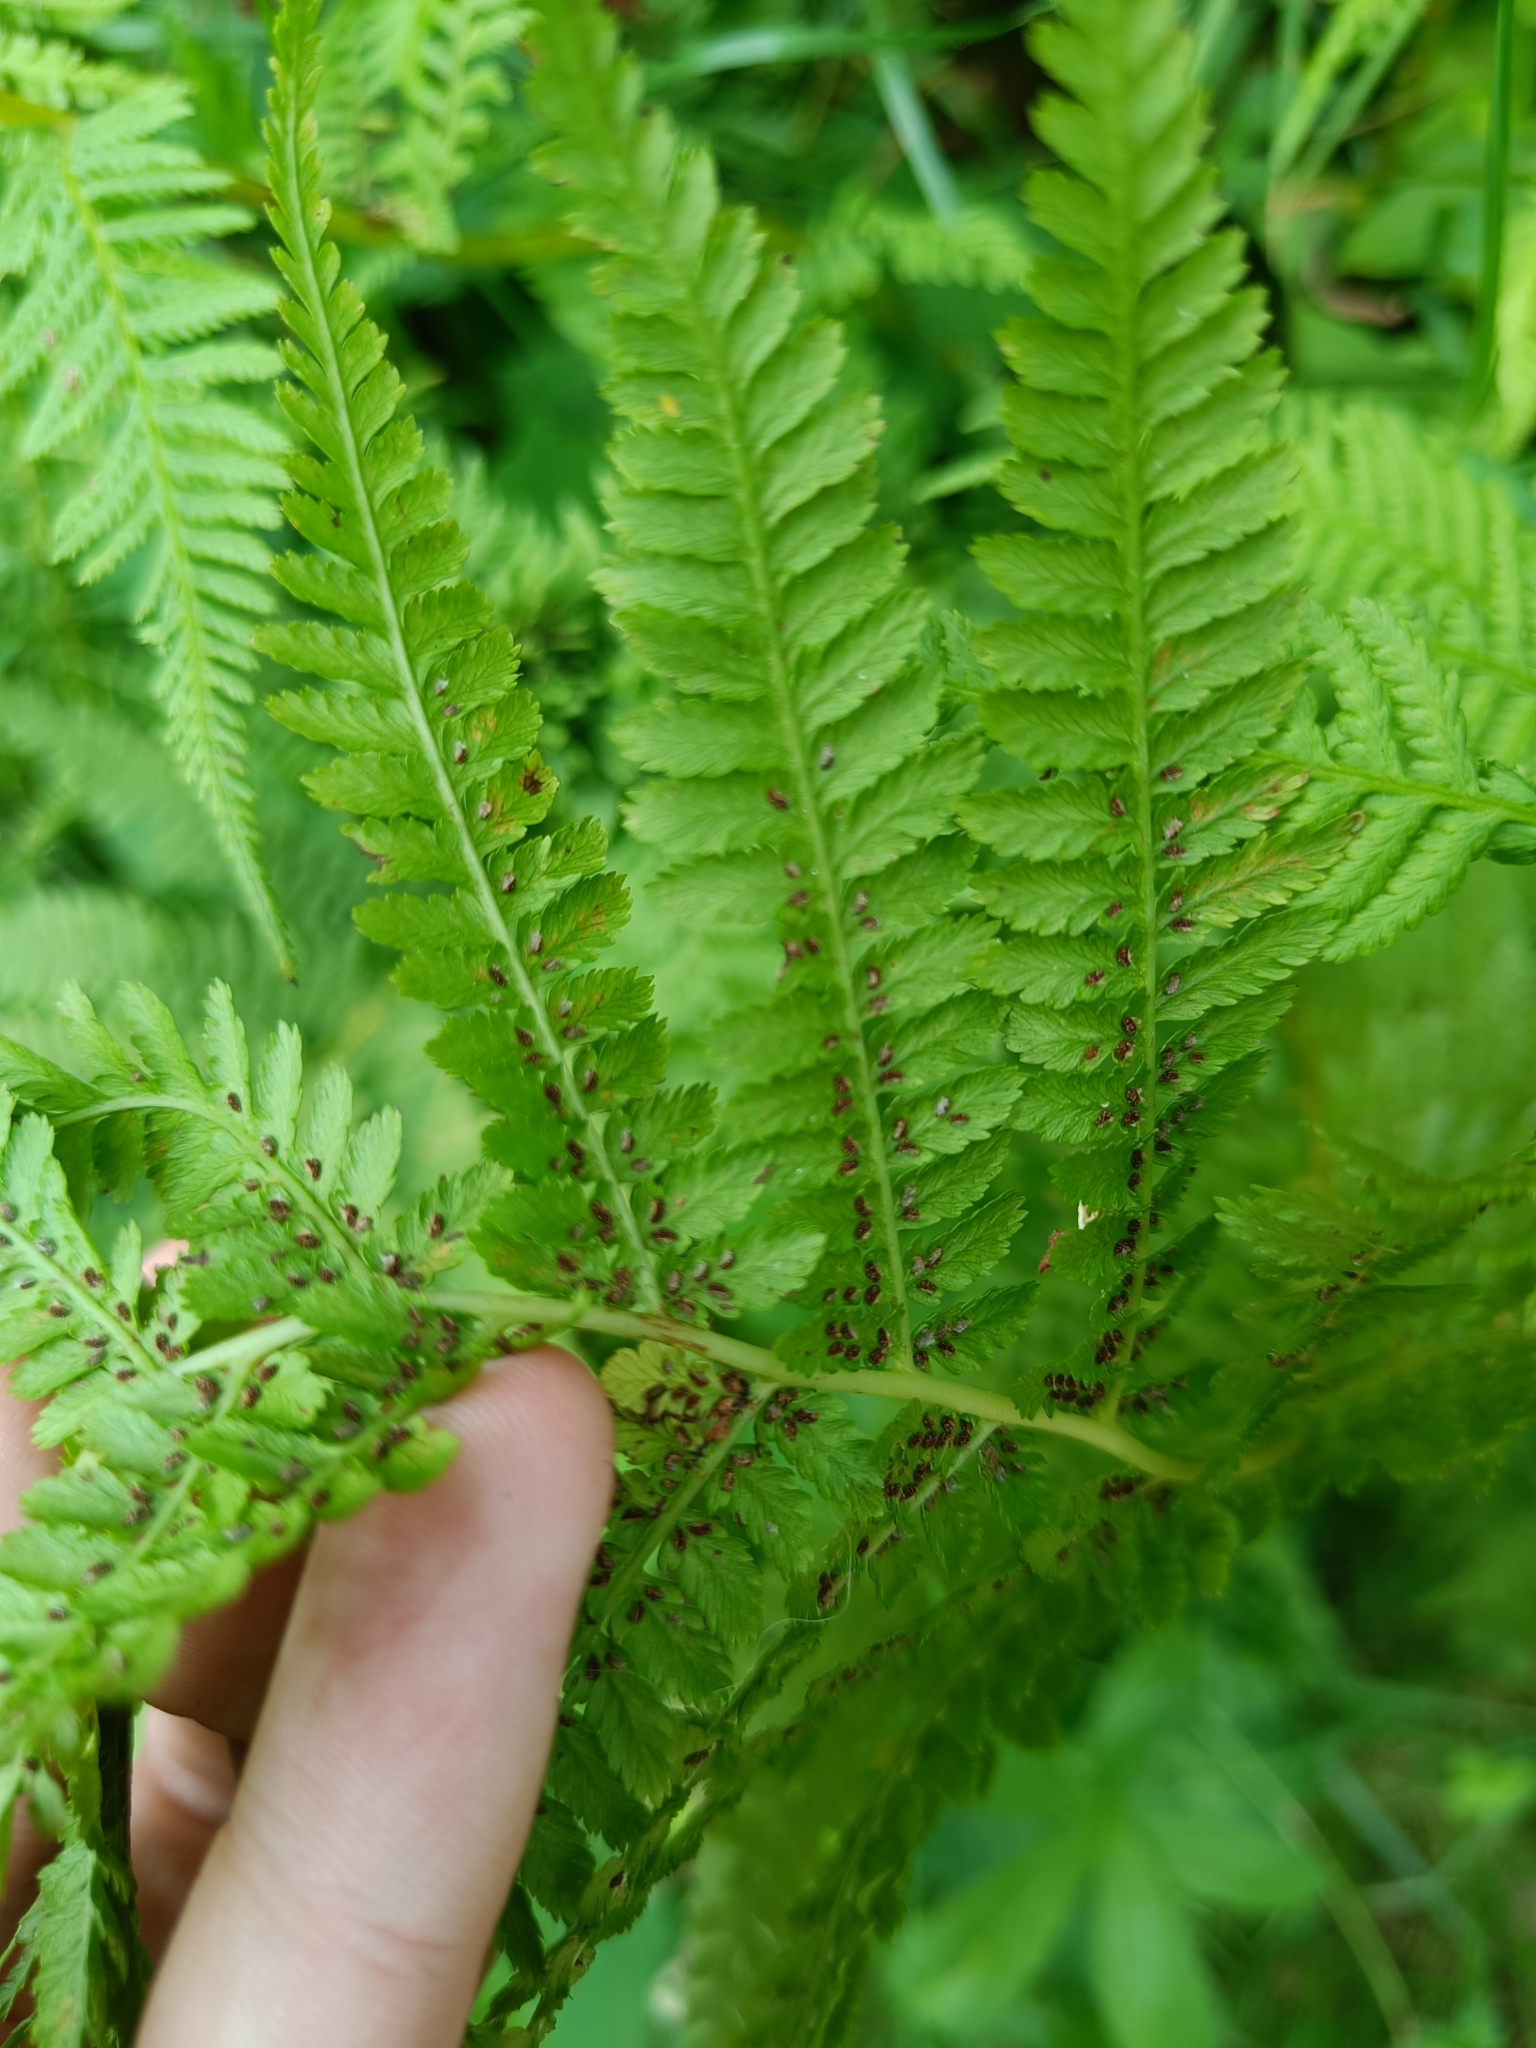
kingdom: Plantae
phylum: Tracheophyta
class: Polypodiopsida
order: Polypodiales
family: Athyriaceae
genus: Athyrium
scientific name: Athyrium filix-femina
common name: Lady fern
